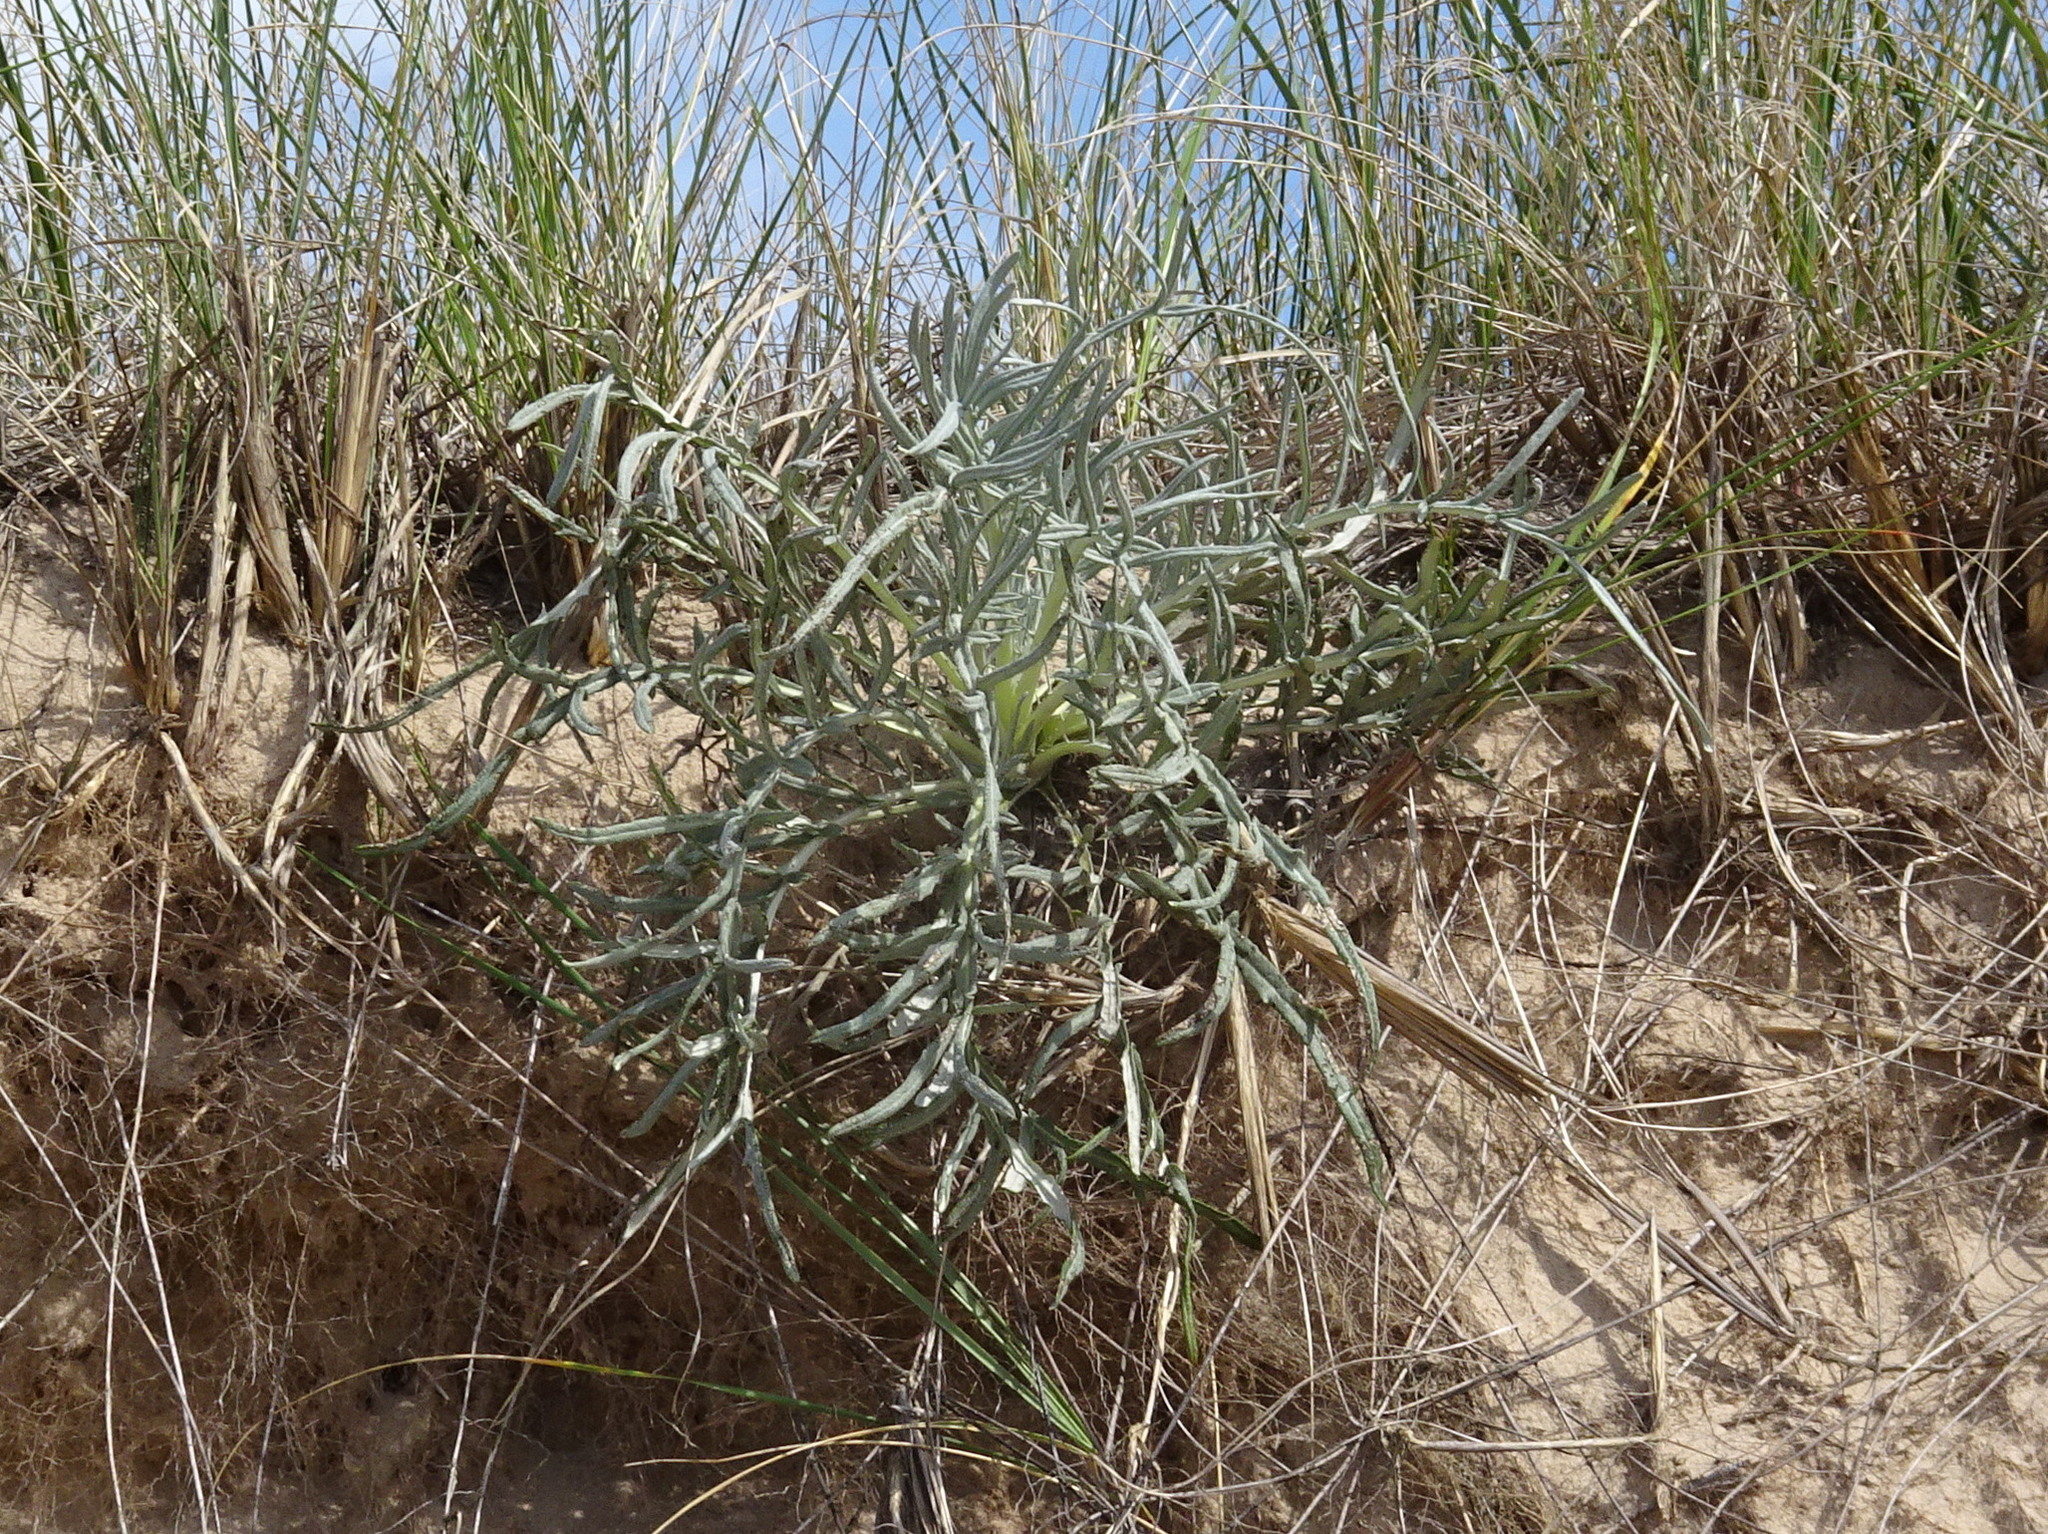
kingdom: Plantae
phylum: Tracheophyta
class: Magnoliopsida
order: Asterales
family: Asteraceae
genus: Cirsium
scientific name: Cirsium pitcheri
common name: Dune thistle
